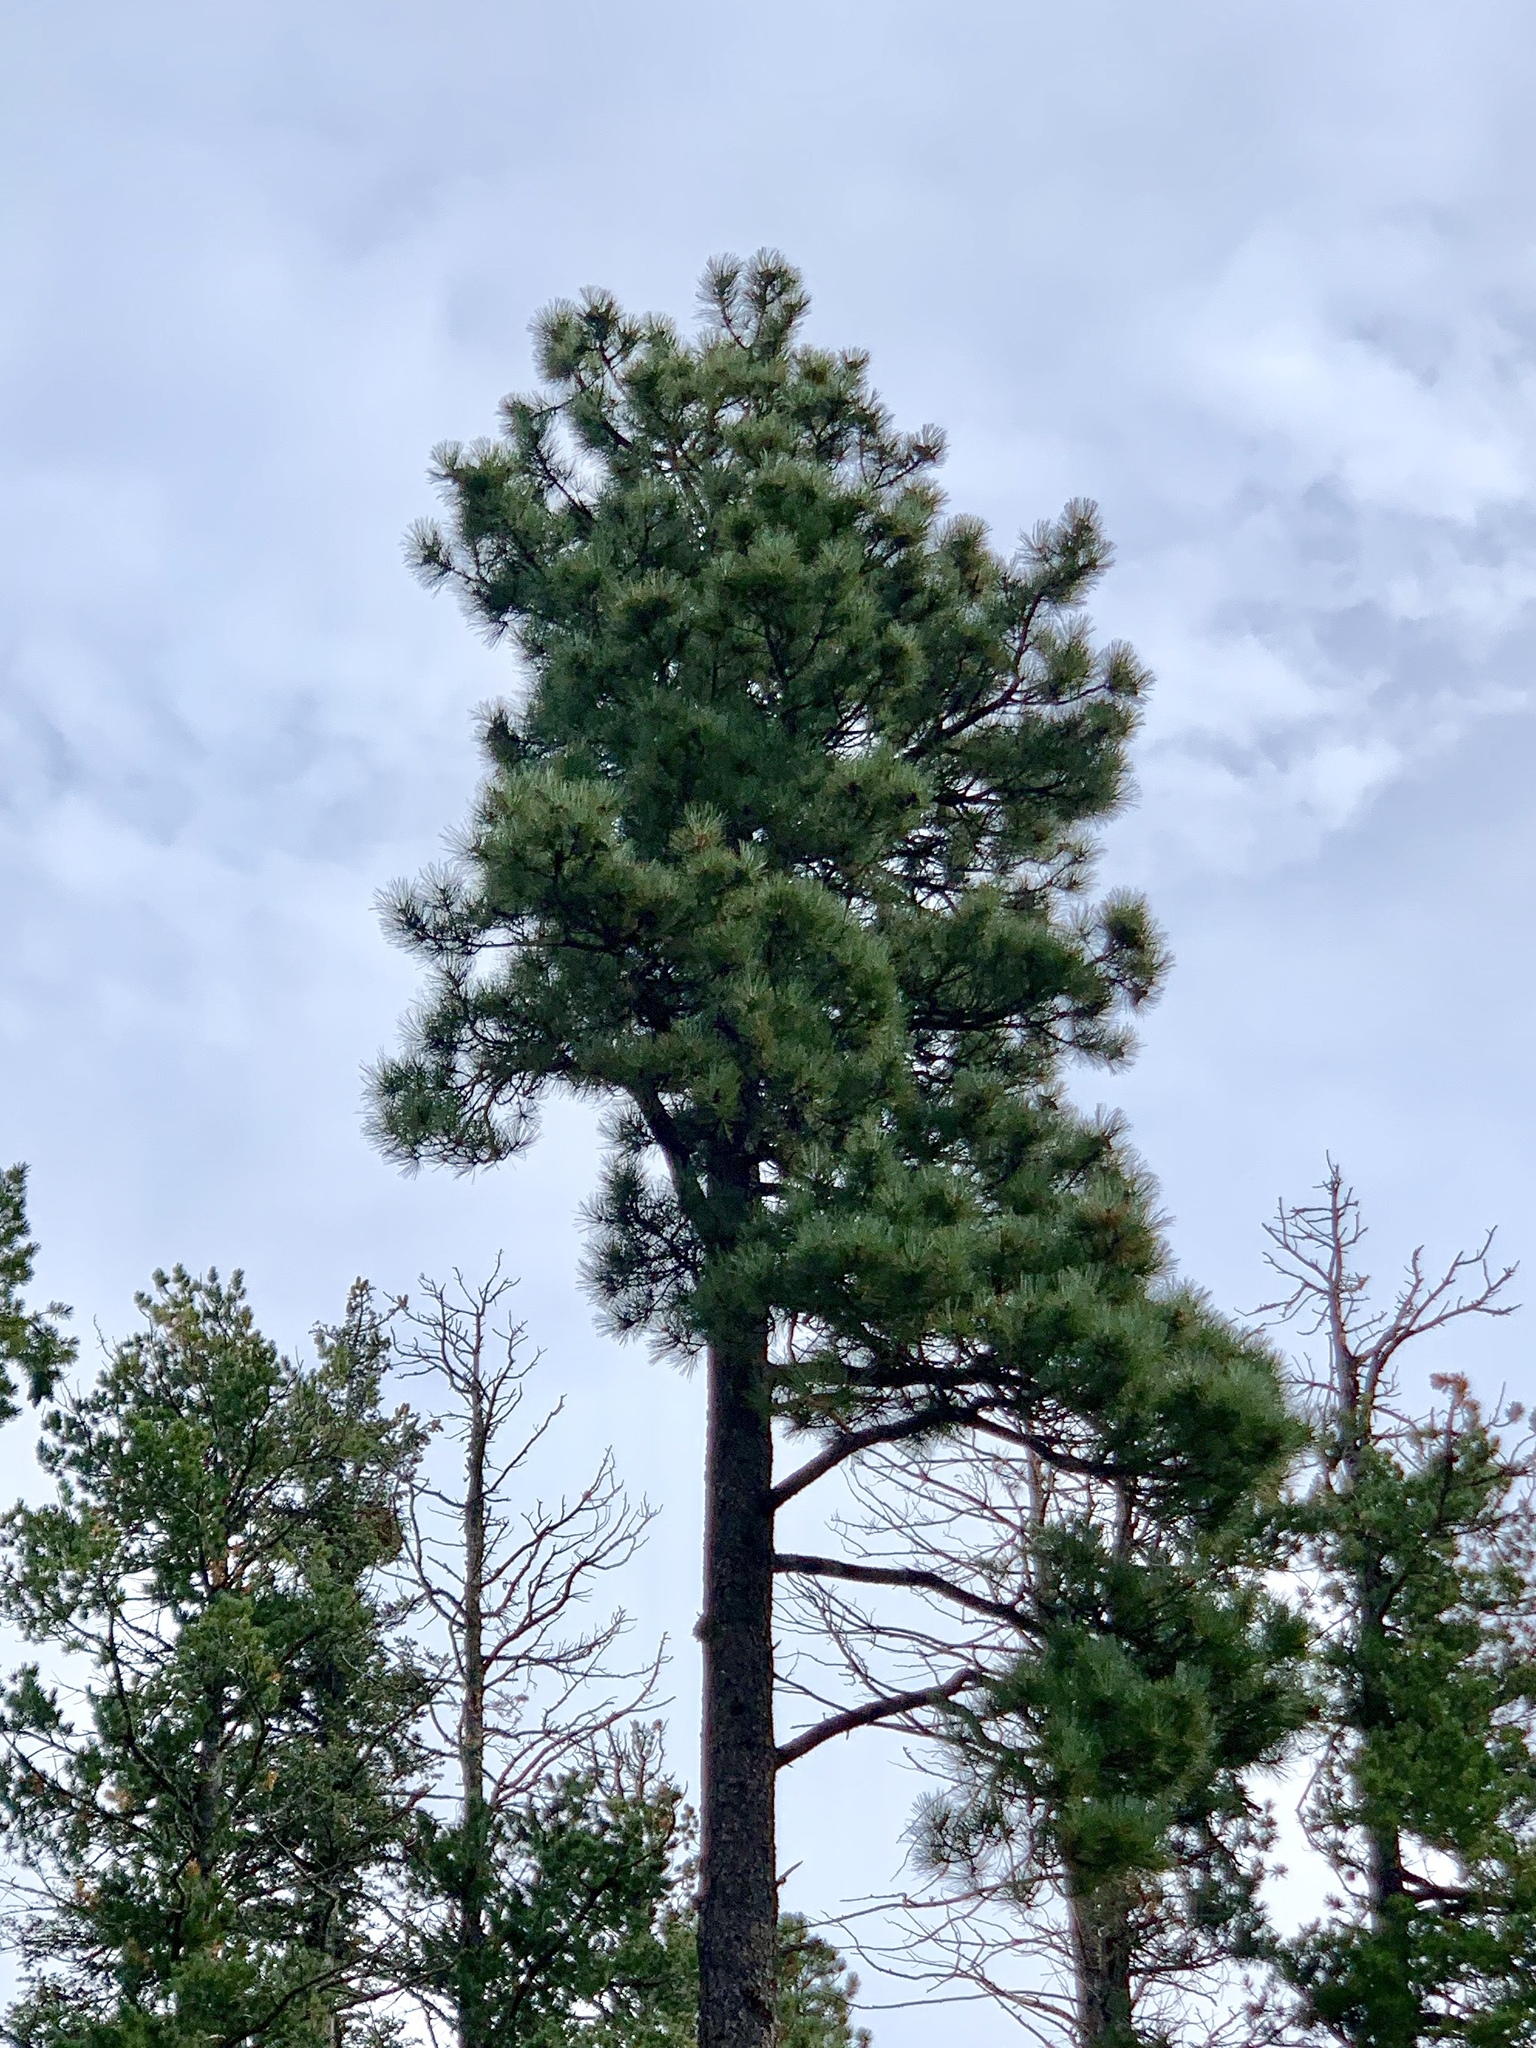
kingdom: Plantae
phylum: Tracheophyta
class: Pinopsida
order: Pinales
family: Pinaceae
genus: Pinus
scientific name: Pinus ponderosa
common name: Western yellow-pine
